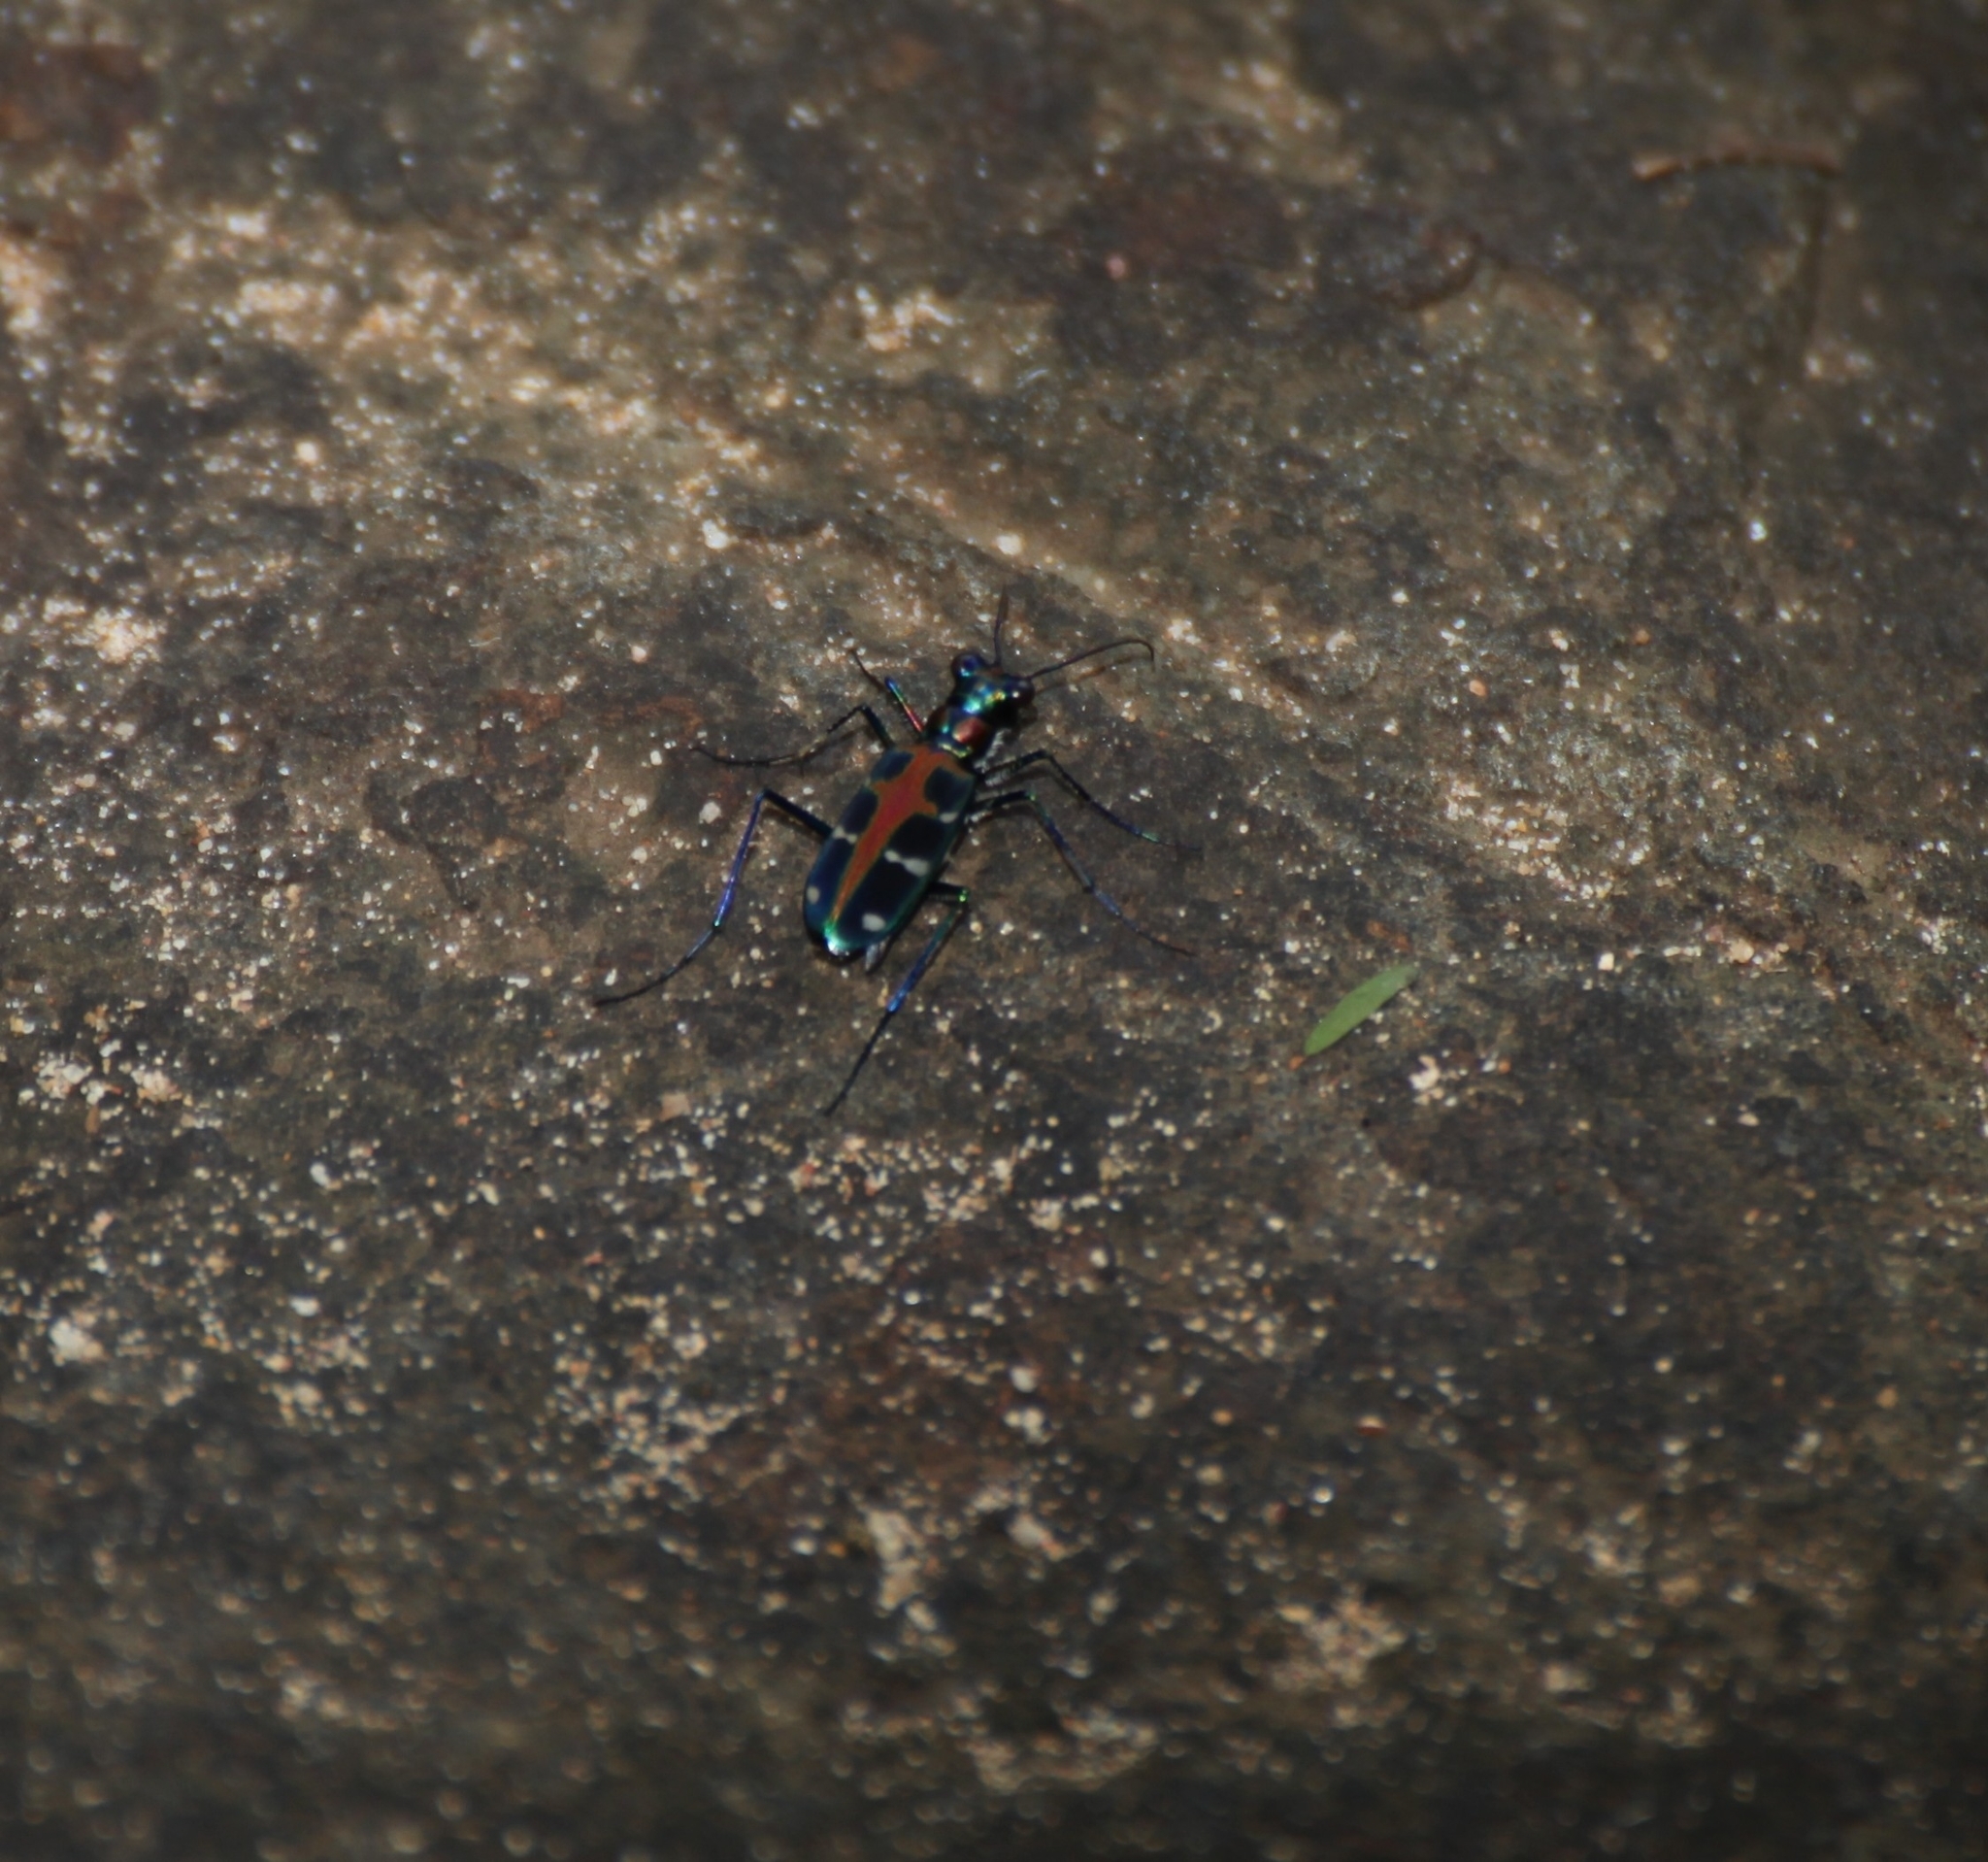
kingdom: Animalia
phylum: Arthropoda
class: Insecta
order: Coleoptera
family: Carabidae
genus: Cicindela
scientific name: Cicindela duponti
